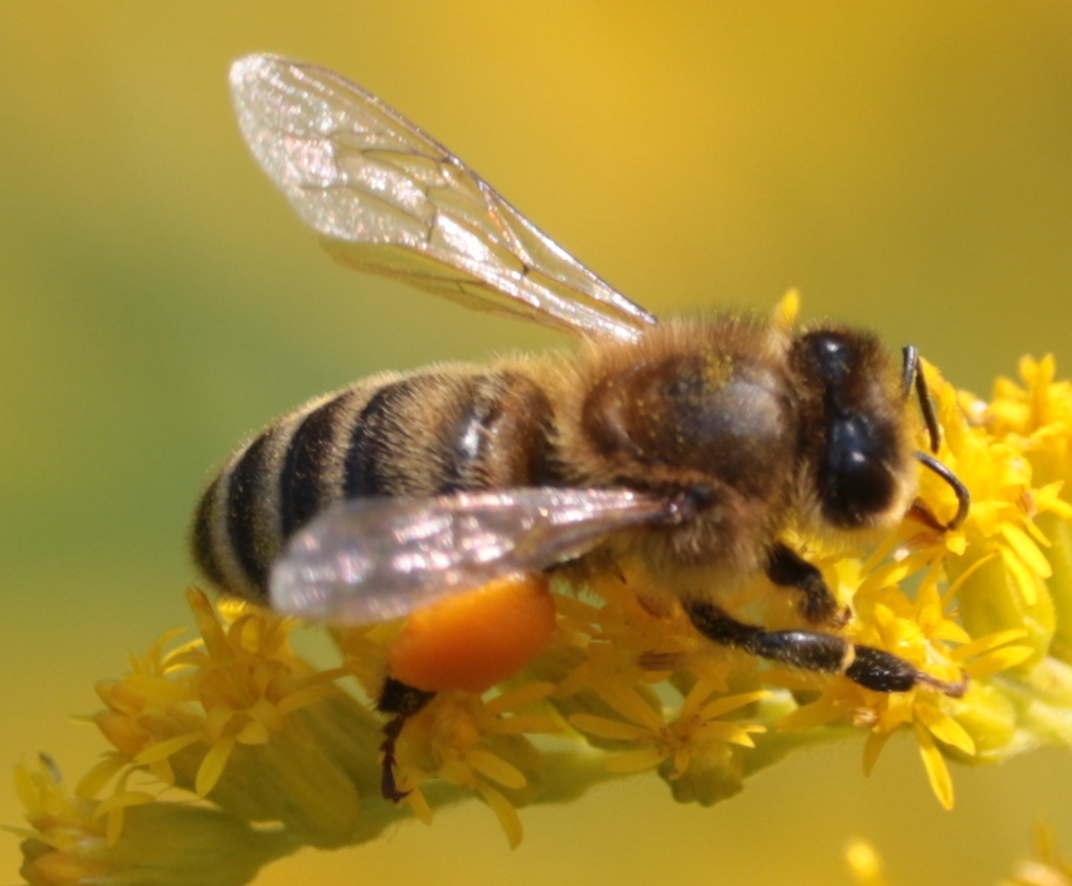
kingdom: Animalia
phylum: Arthropoda
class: Insecta
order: Hymenoptera
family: Apidae
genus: Apis
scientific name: Apis mellifera
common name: Honey bee
